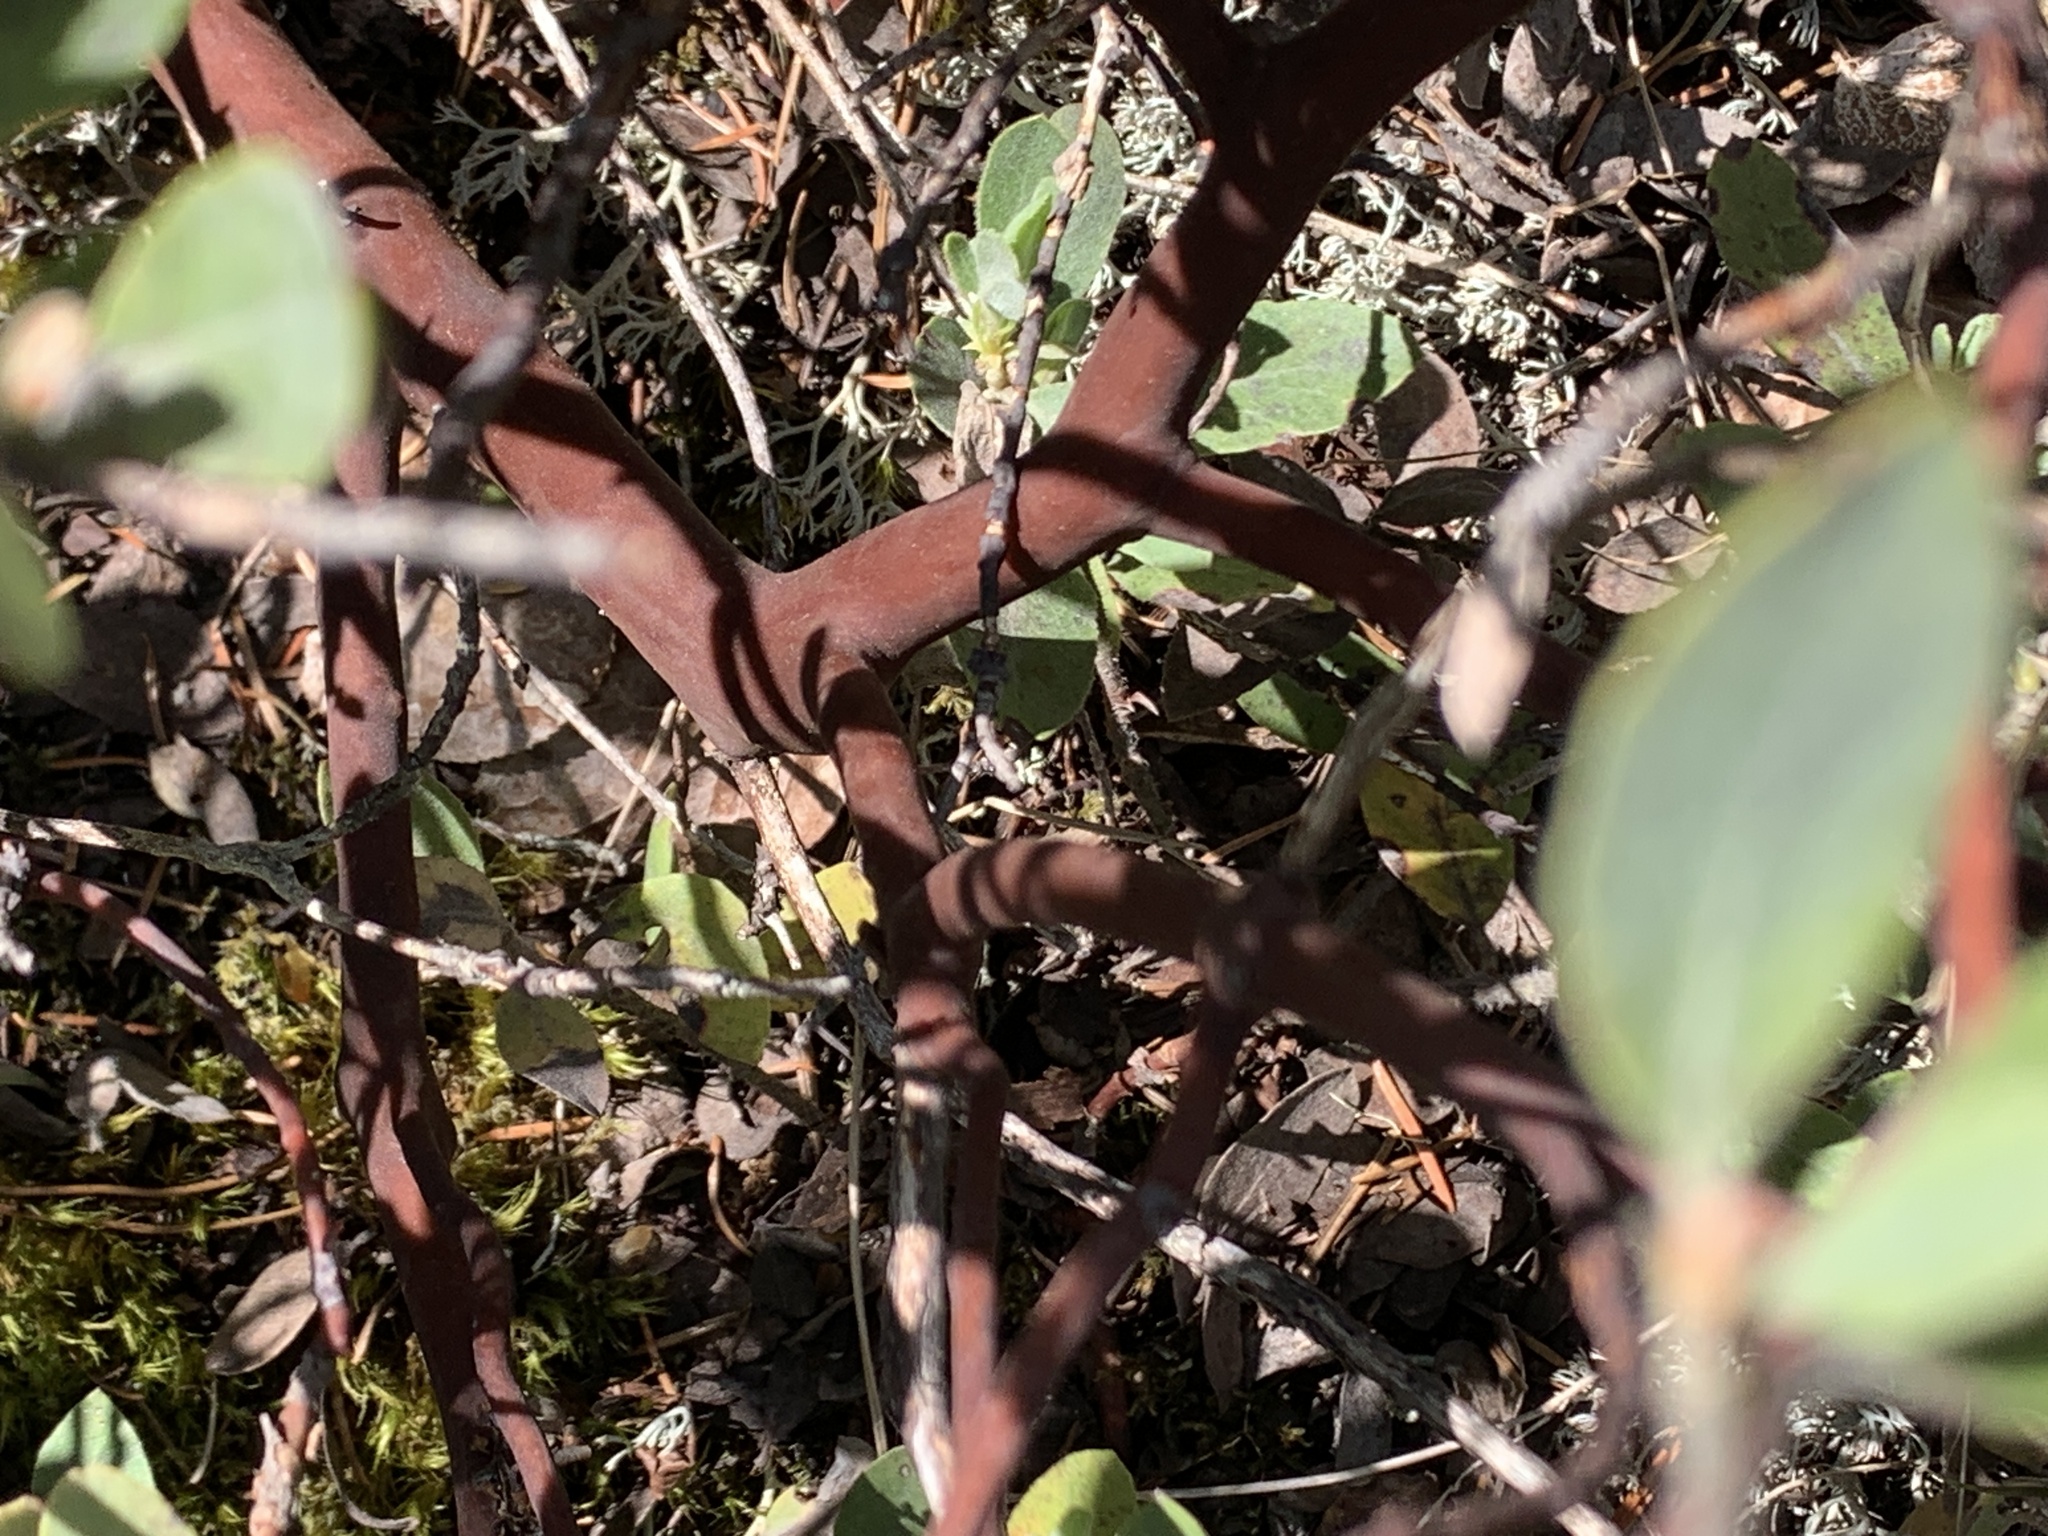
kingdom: Plantae
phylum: Tracheophyta
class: Magnoliopsida
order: Ericales
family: Ericaceae
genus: Arctostaphylos
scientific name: Arctostaphylos columbiana
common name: Bristly bearberry
